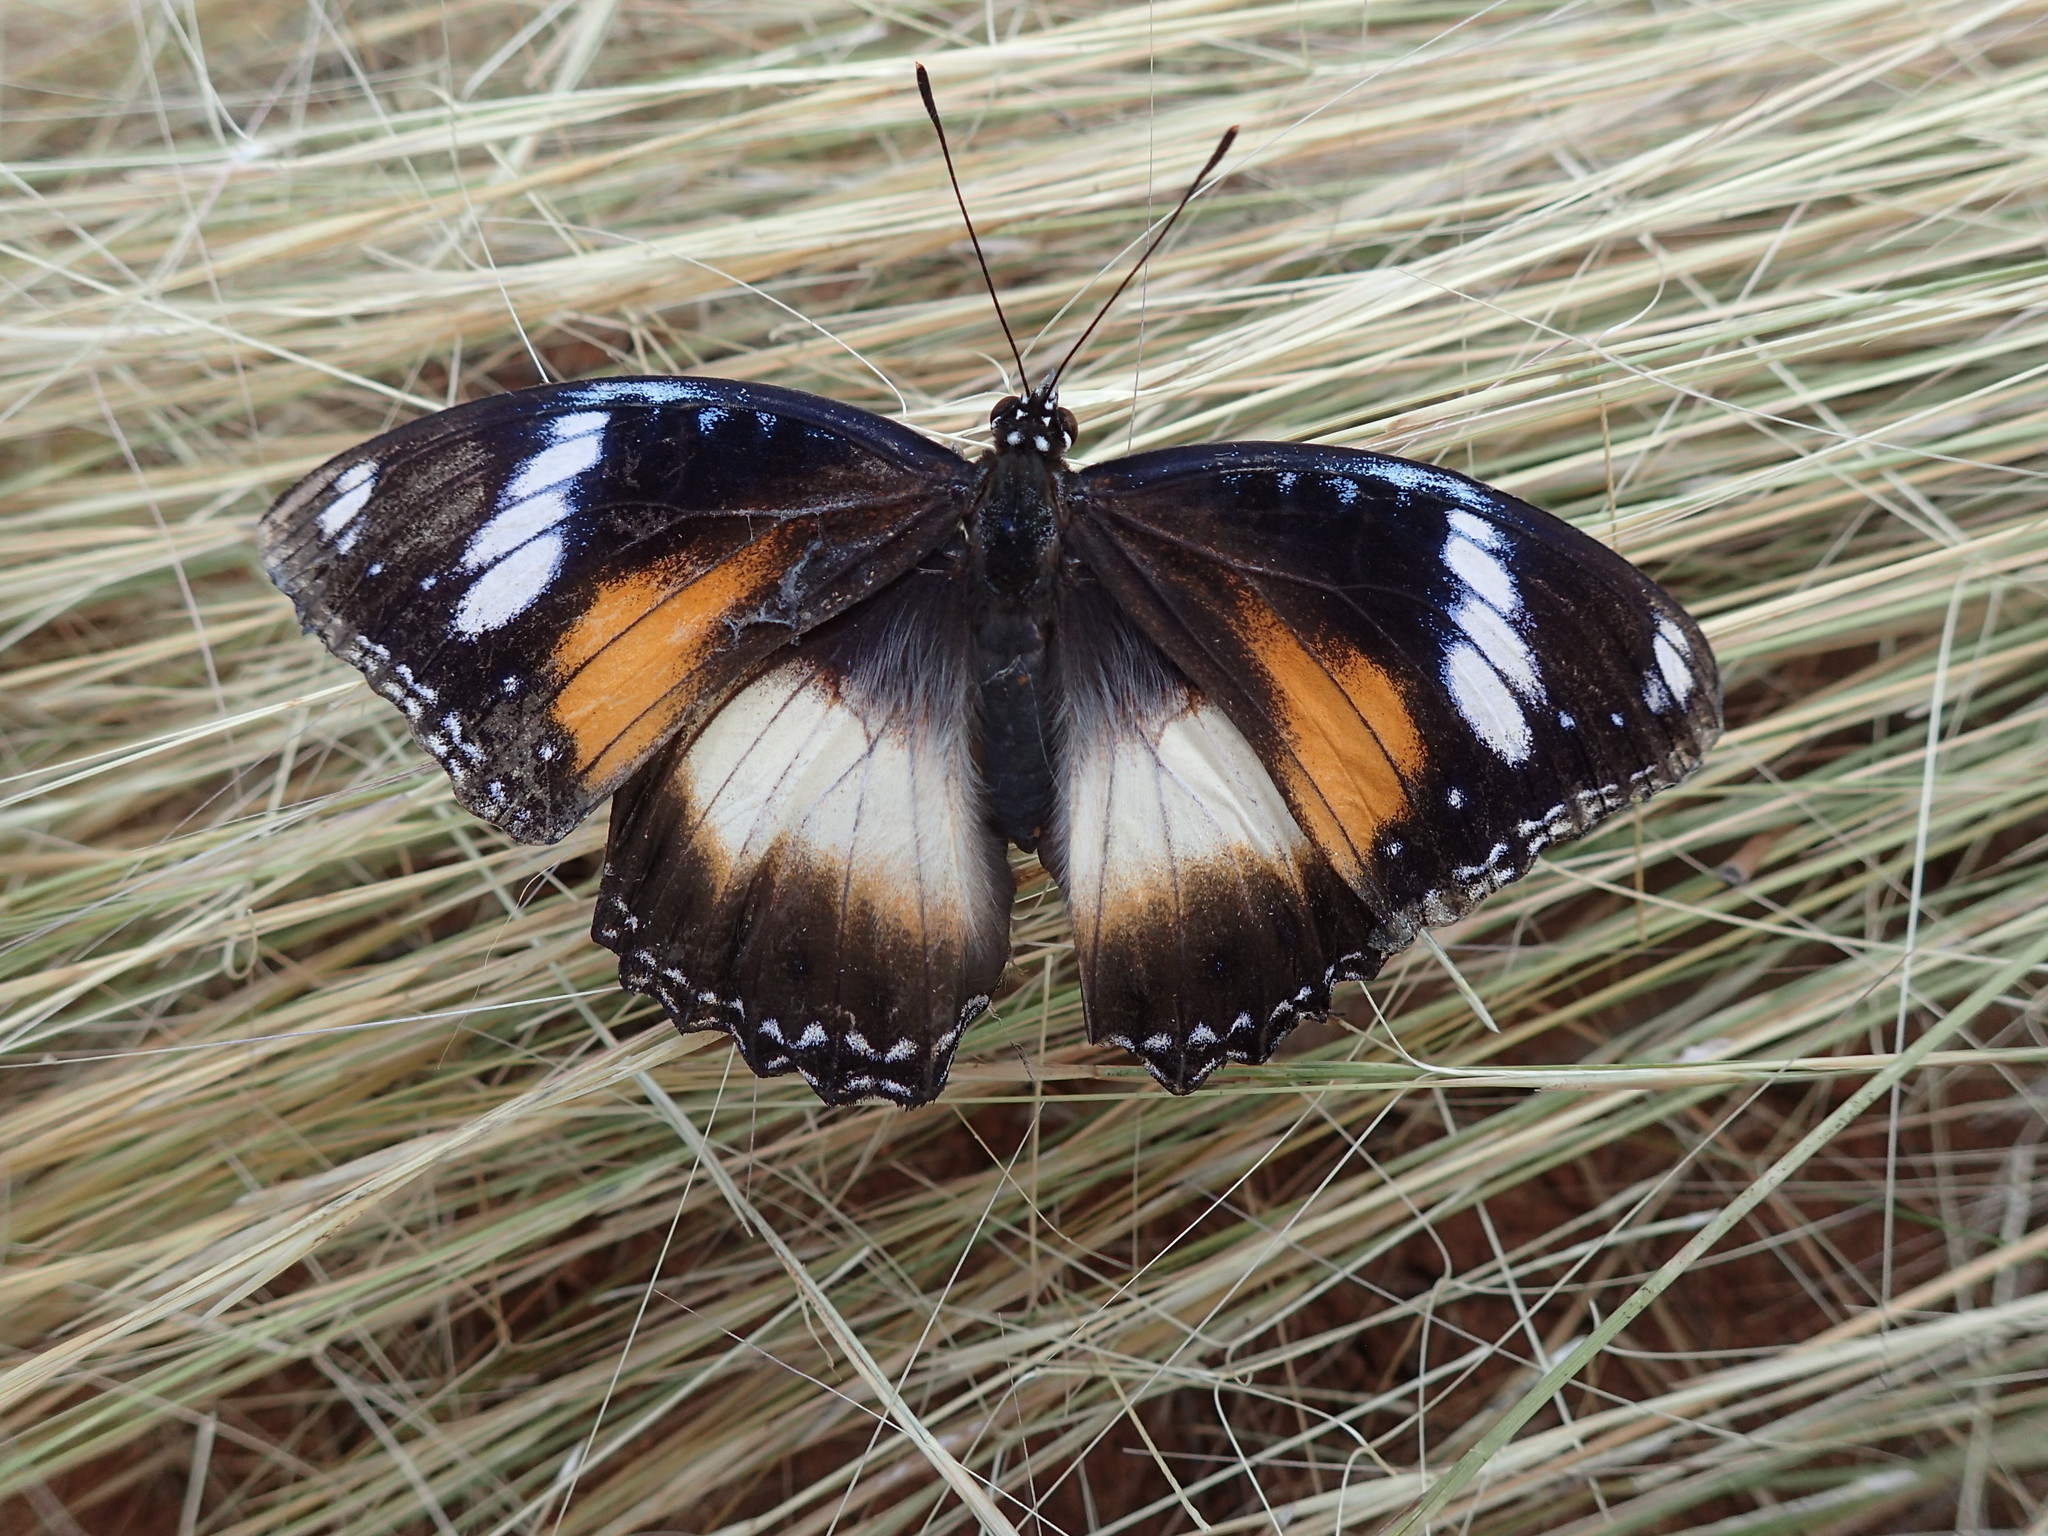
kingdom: Animalia
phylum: Arthropoda
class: Insecta
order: Lepidoptera
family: Nymphalidae
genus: Hypolimnas
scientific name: Hypolimnas bolina
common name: Great eggfly
